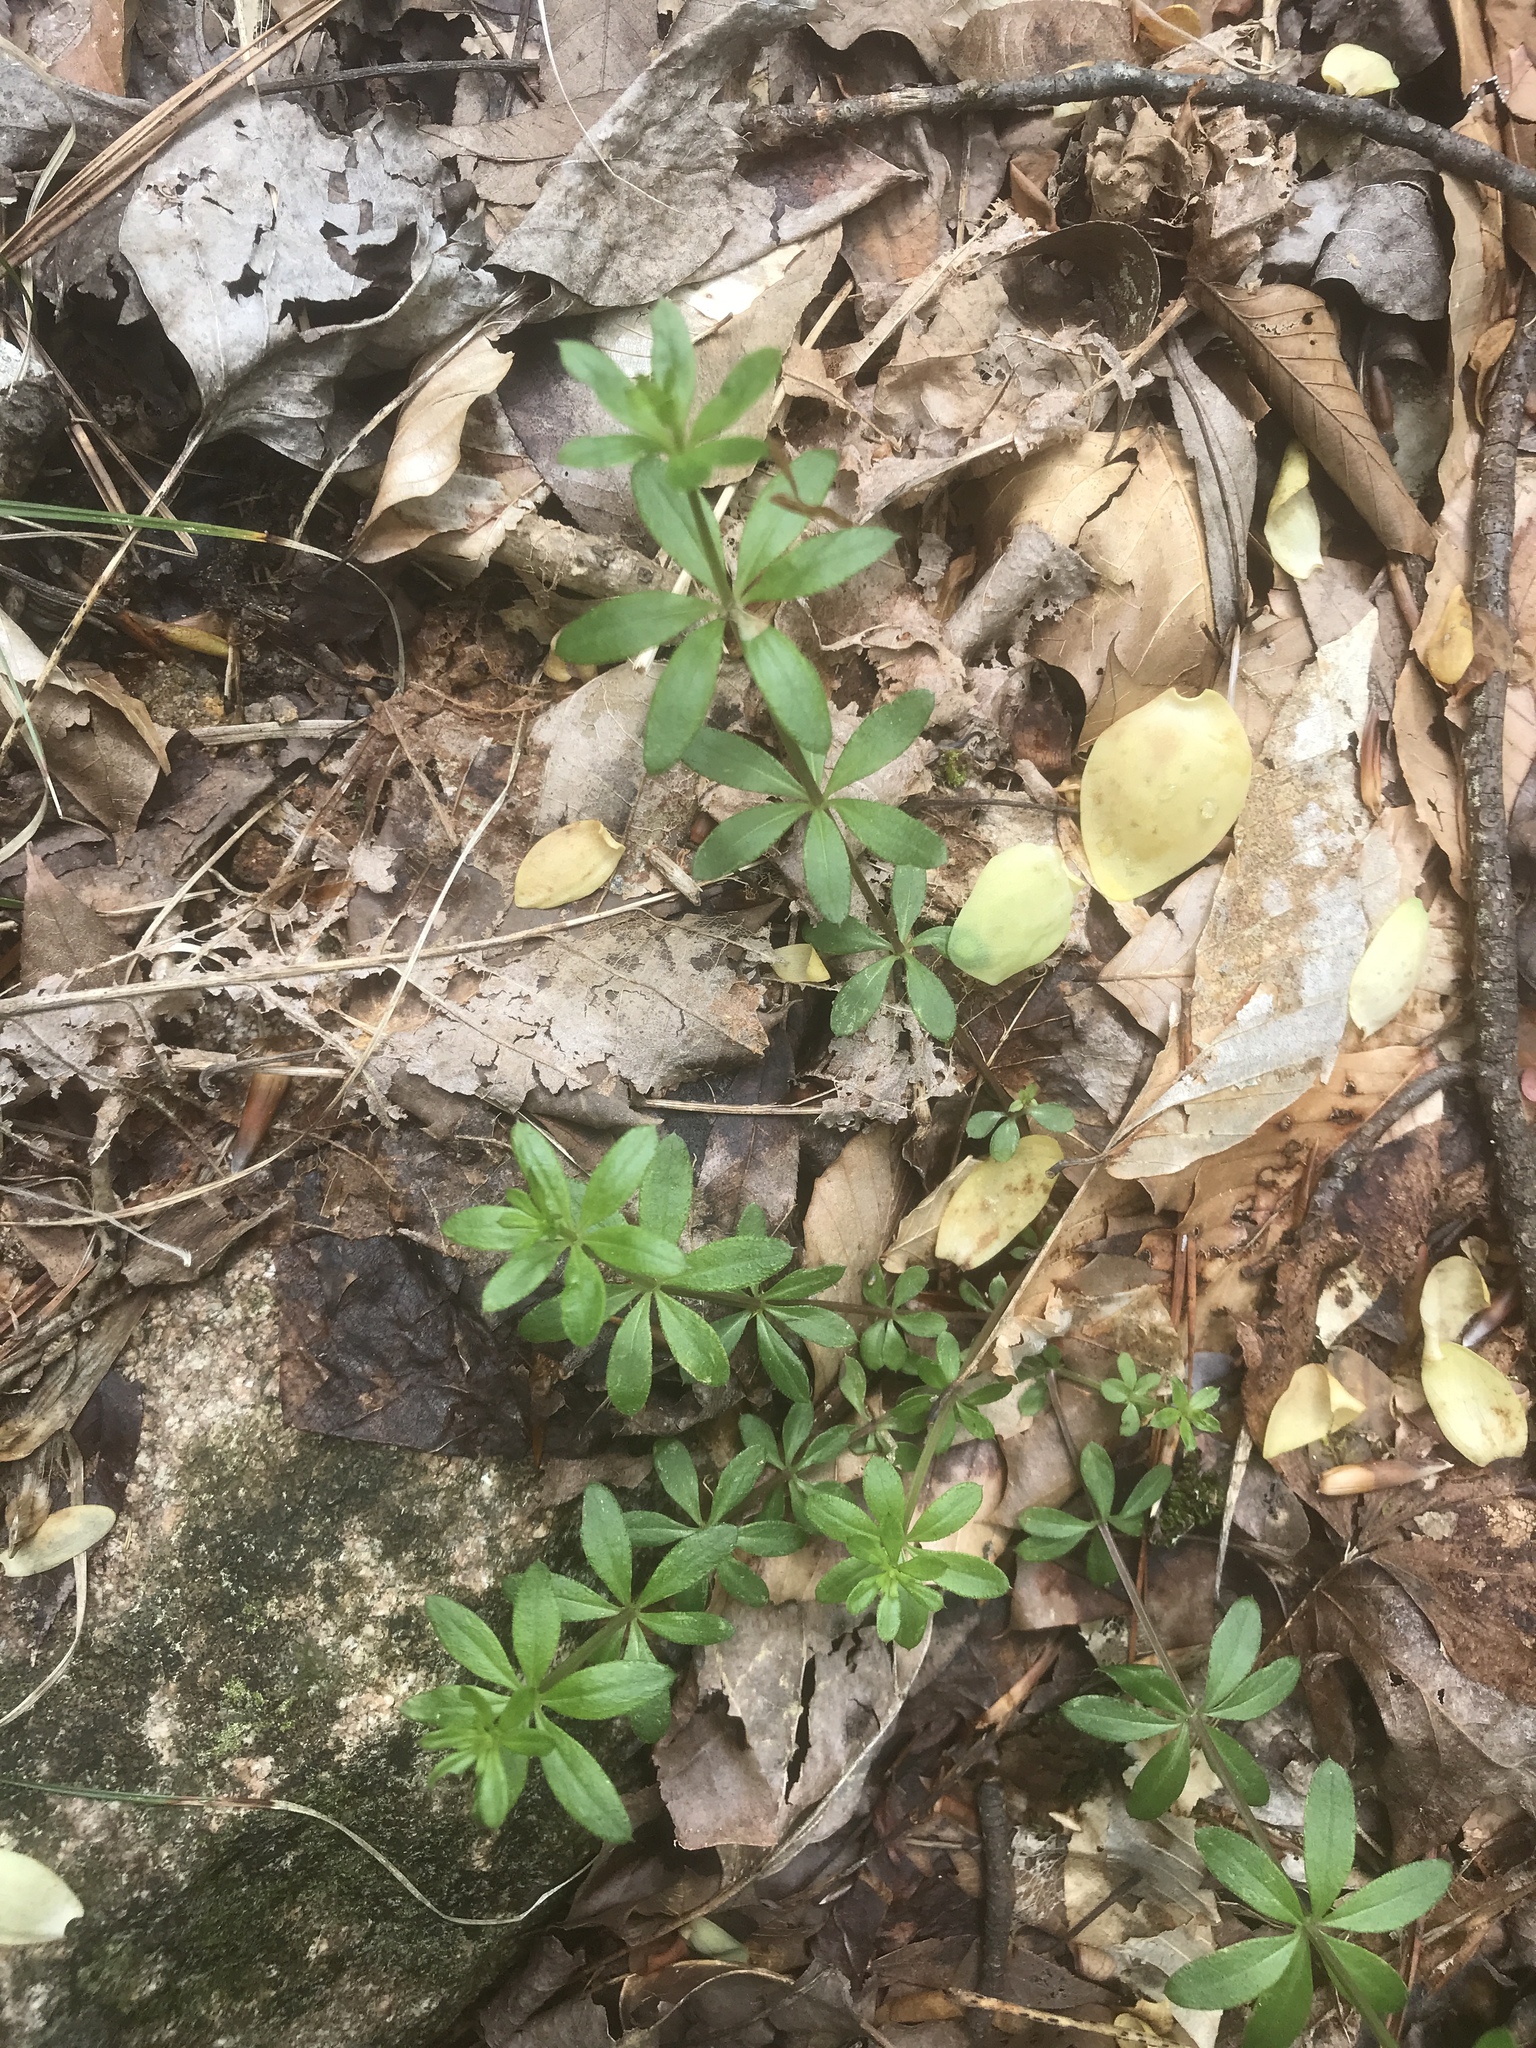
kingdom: Plantae
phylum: Tracheophyta
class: Magnoliopsida
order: Gentianales
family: Rubiaceae
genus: Galium
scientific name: Galium triflorum
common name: Fragrant bedstraw
